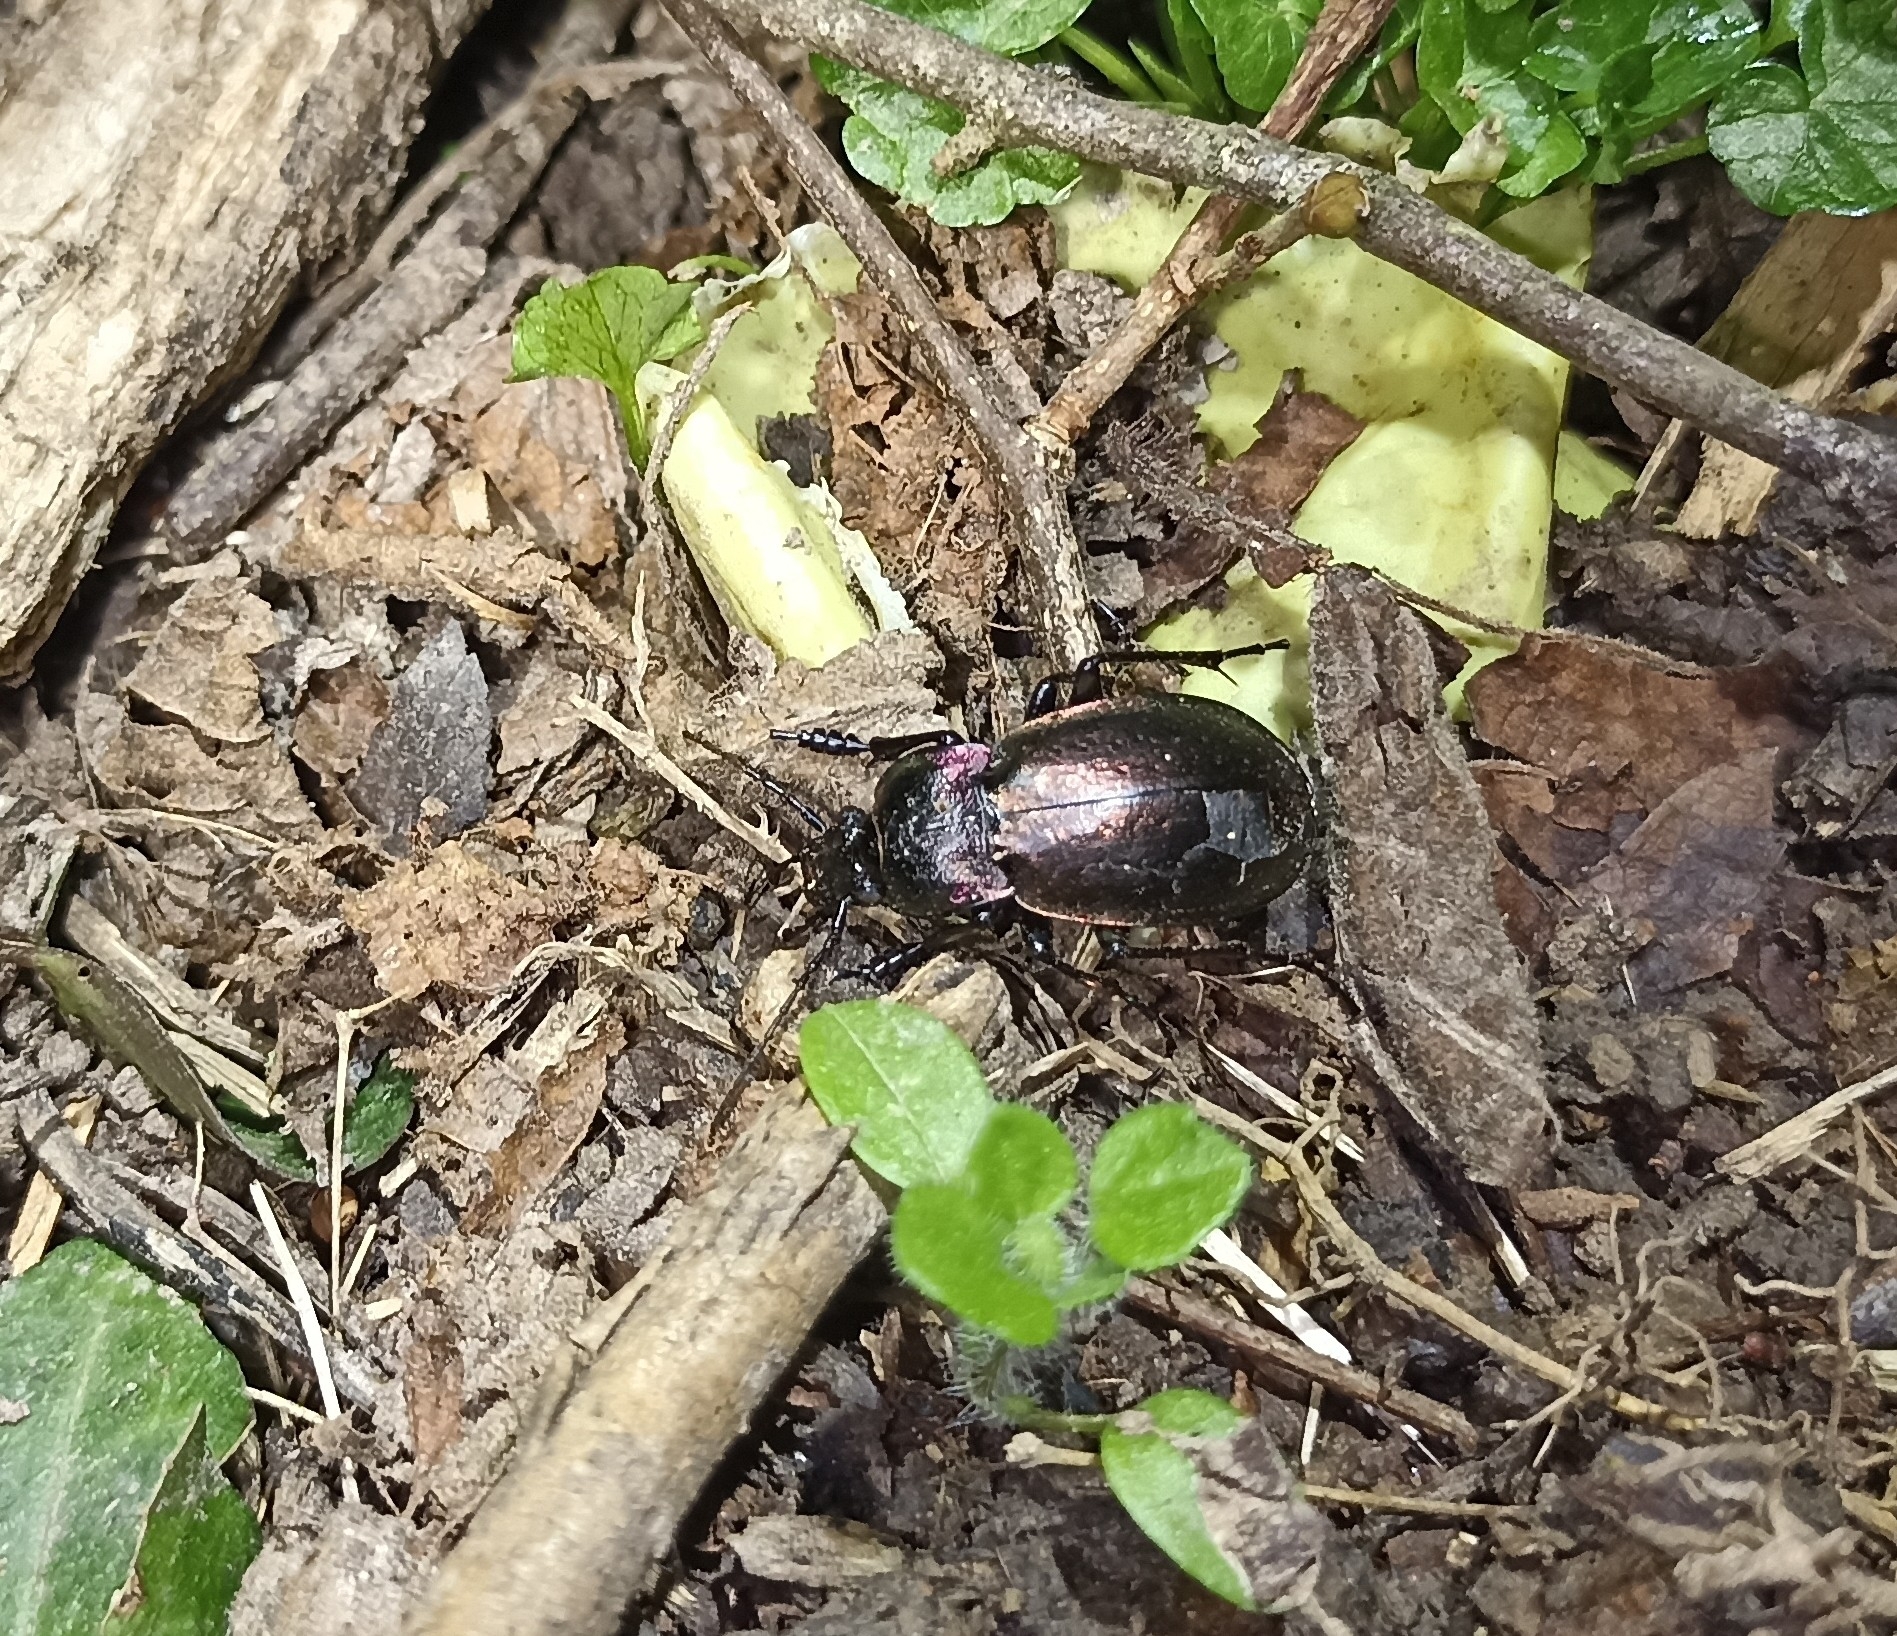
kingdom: Animalia
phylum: Arthropoda
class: Insecta
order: Coleoptera
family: Carabidae
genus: Carabus
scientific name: Carabus nemoralis
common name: European ground beetle
